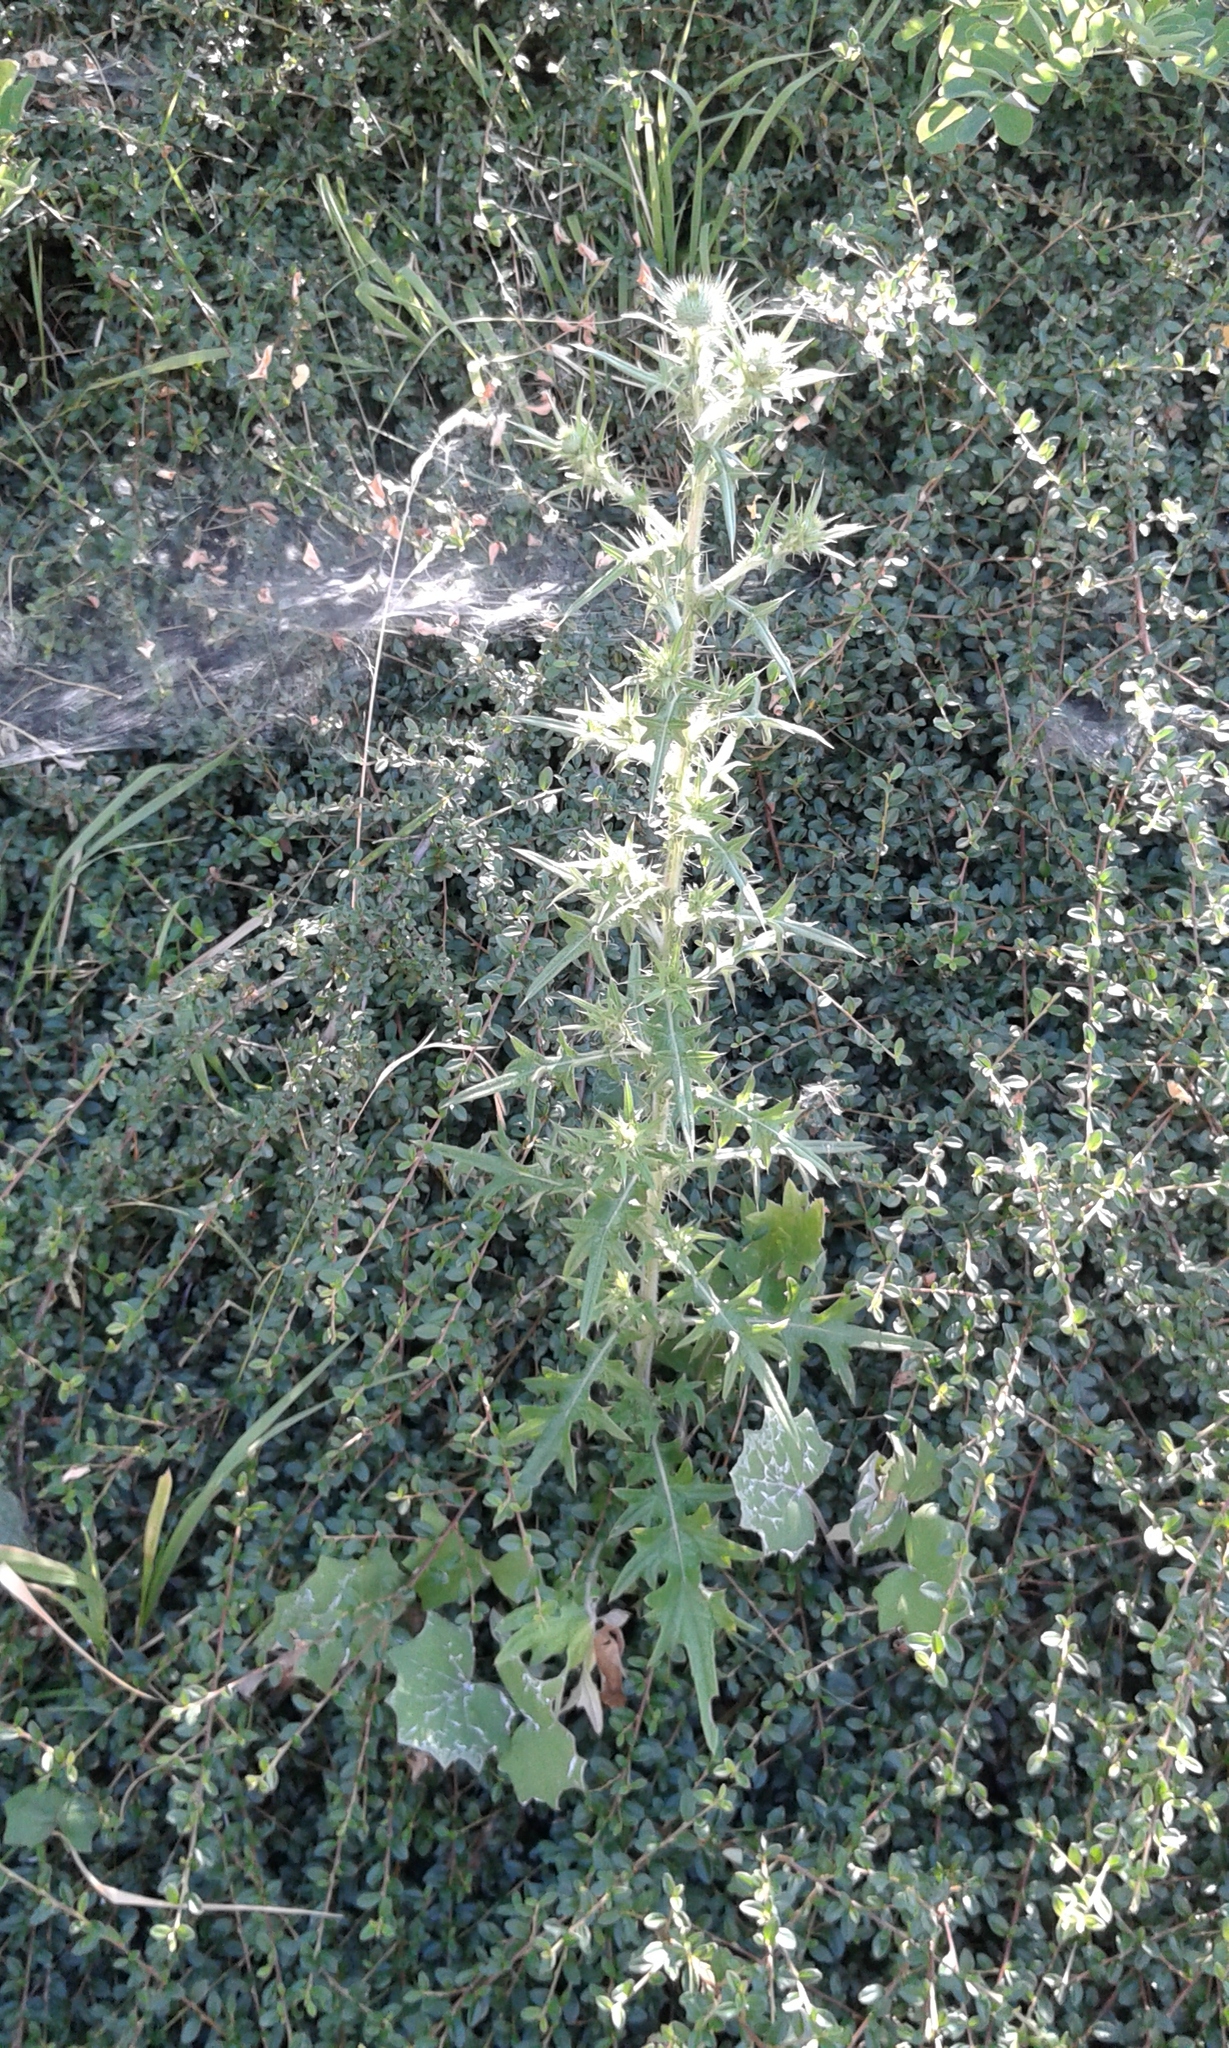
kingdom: Plantae
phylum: Tracheophyta
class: Magnoliopsida
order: Asterales
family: Asteraceae
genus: Cirsium
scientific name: Cirsium vulgare
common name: Bull thistle
